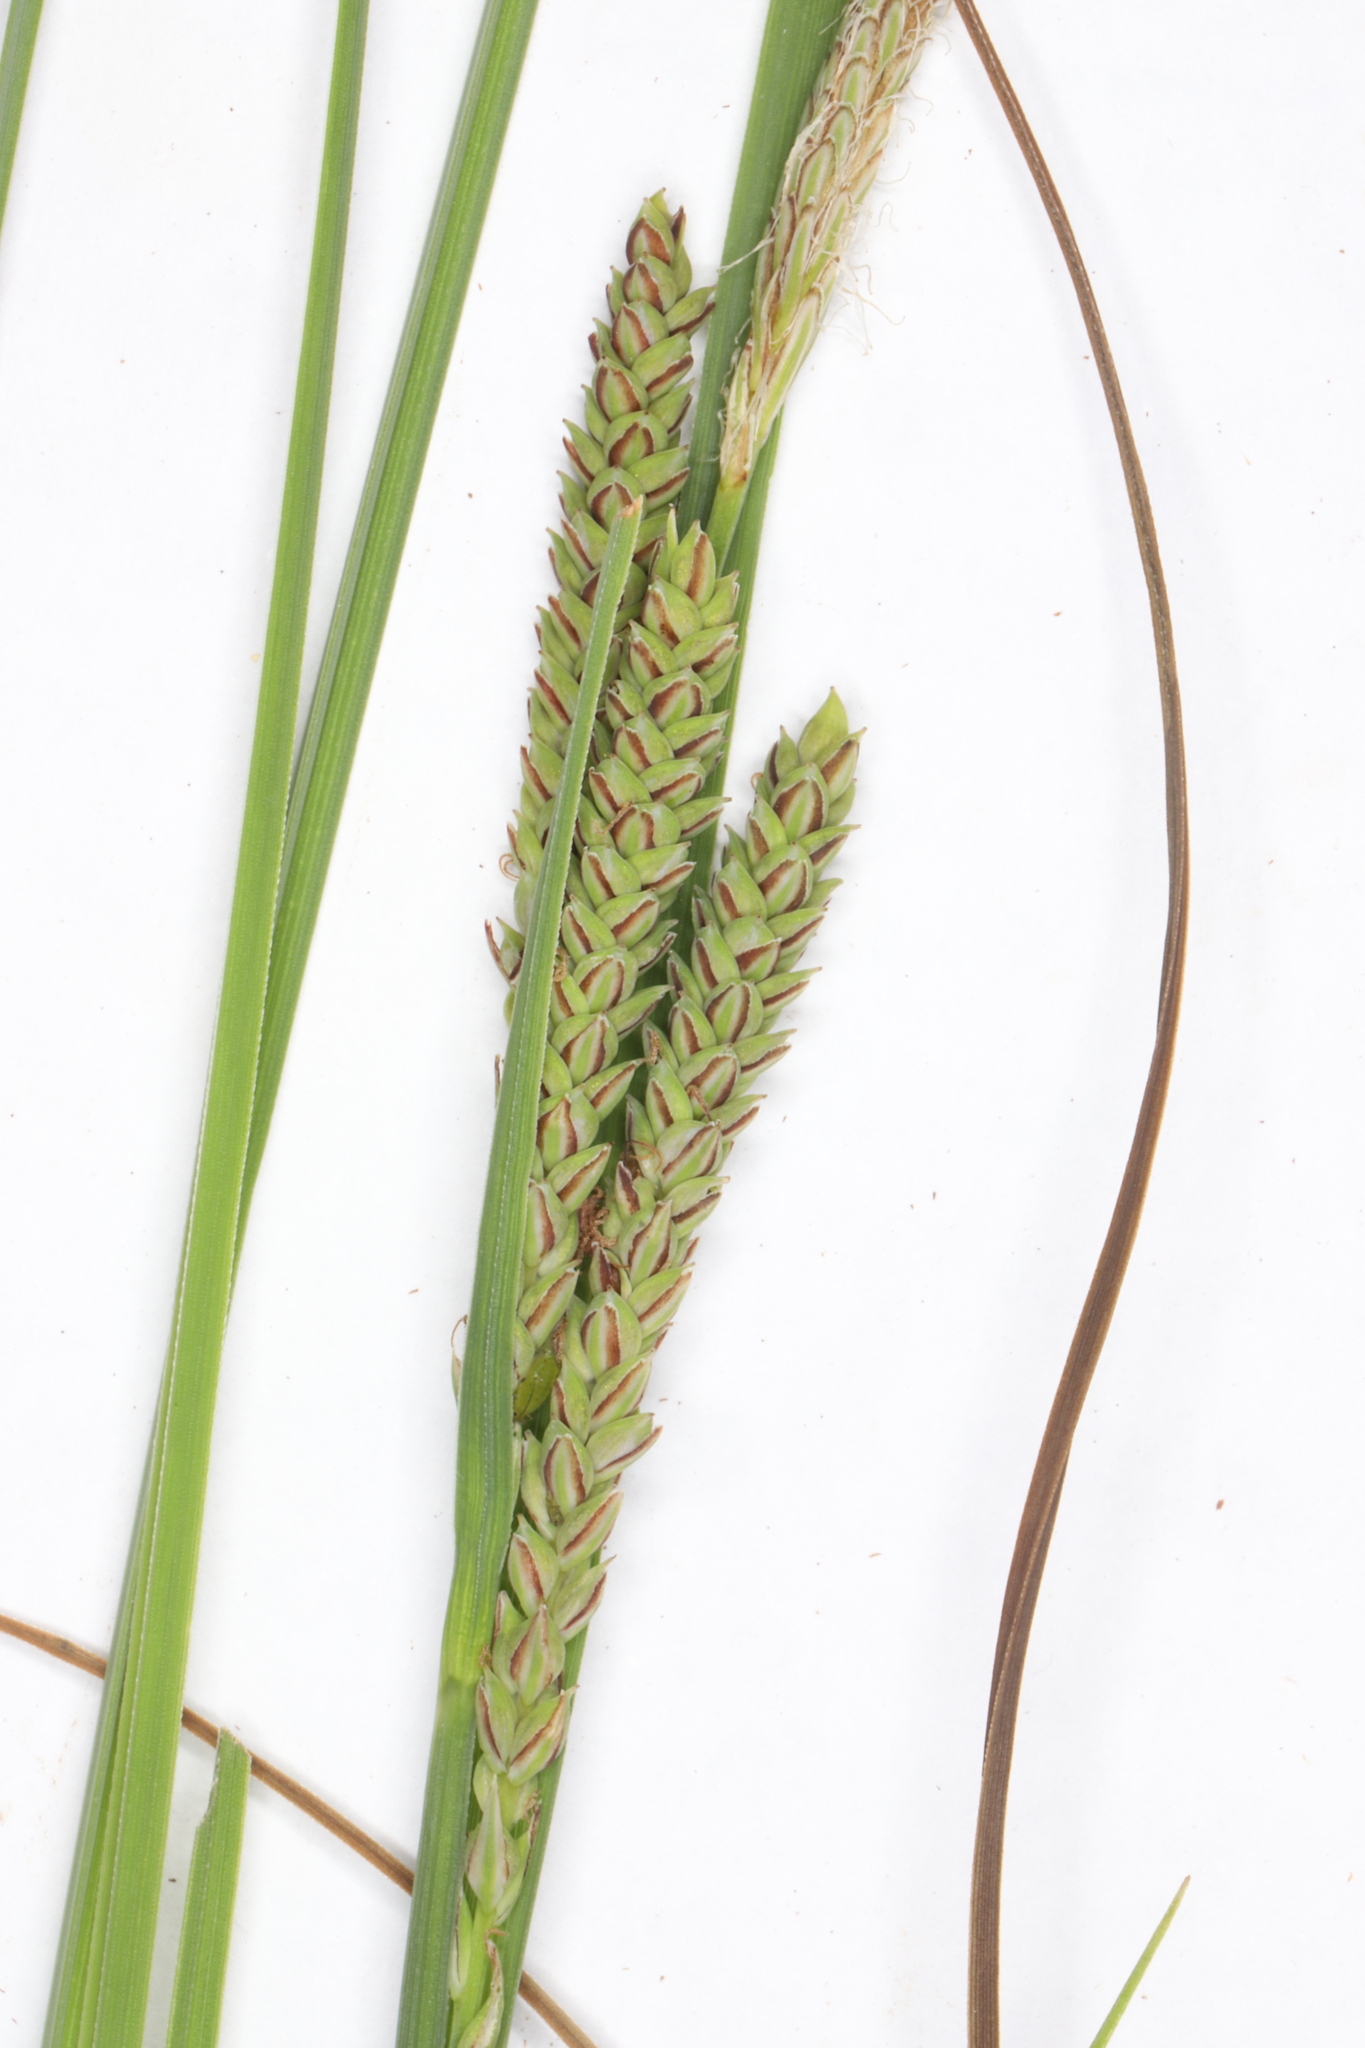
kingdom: Plantae
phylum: Tracheophyta
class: Liliopsida
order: Poales
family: Cyperaceae
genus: Carex
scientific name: Carex lenticularis
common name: Lakeshore sedge
